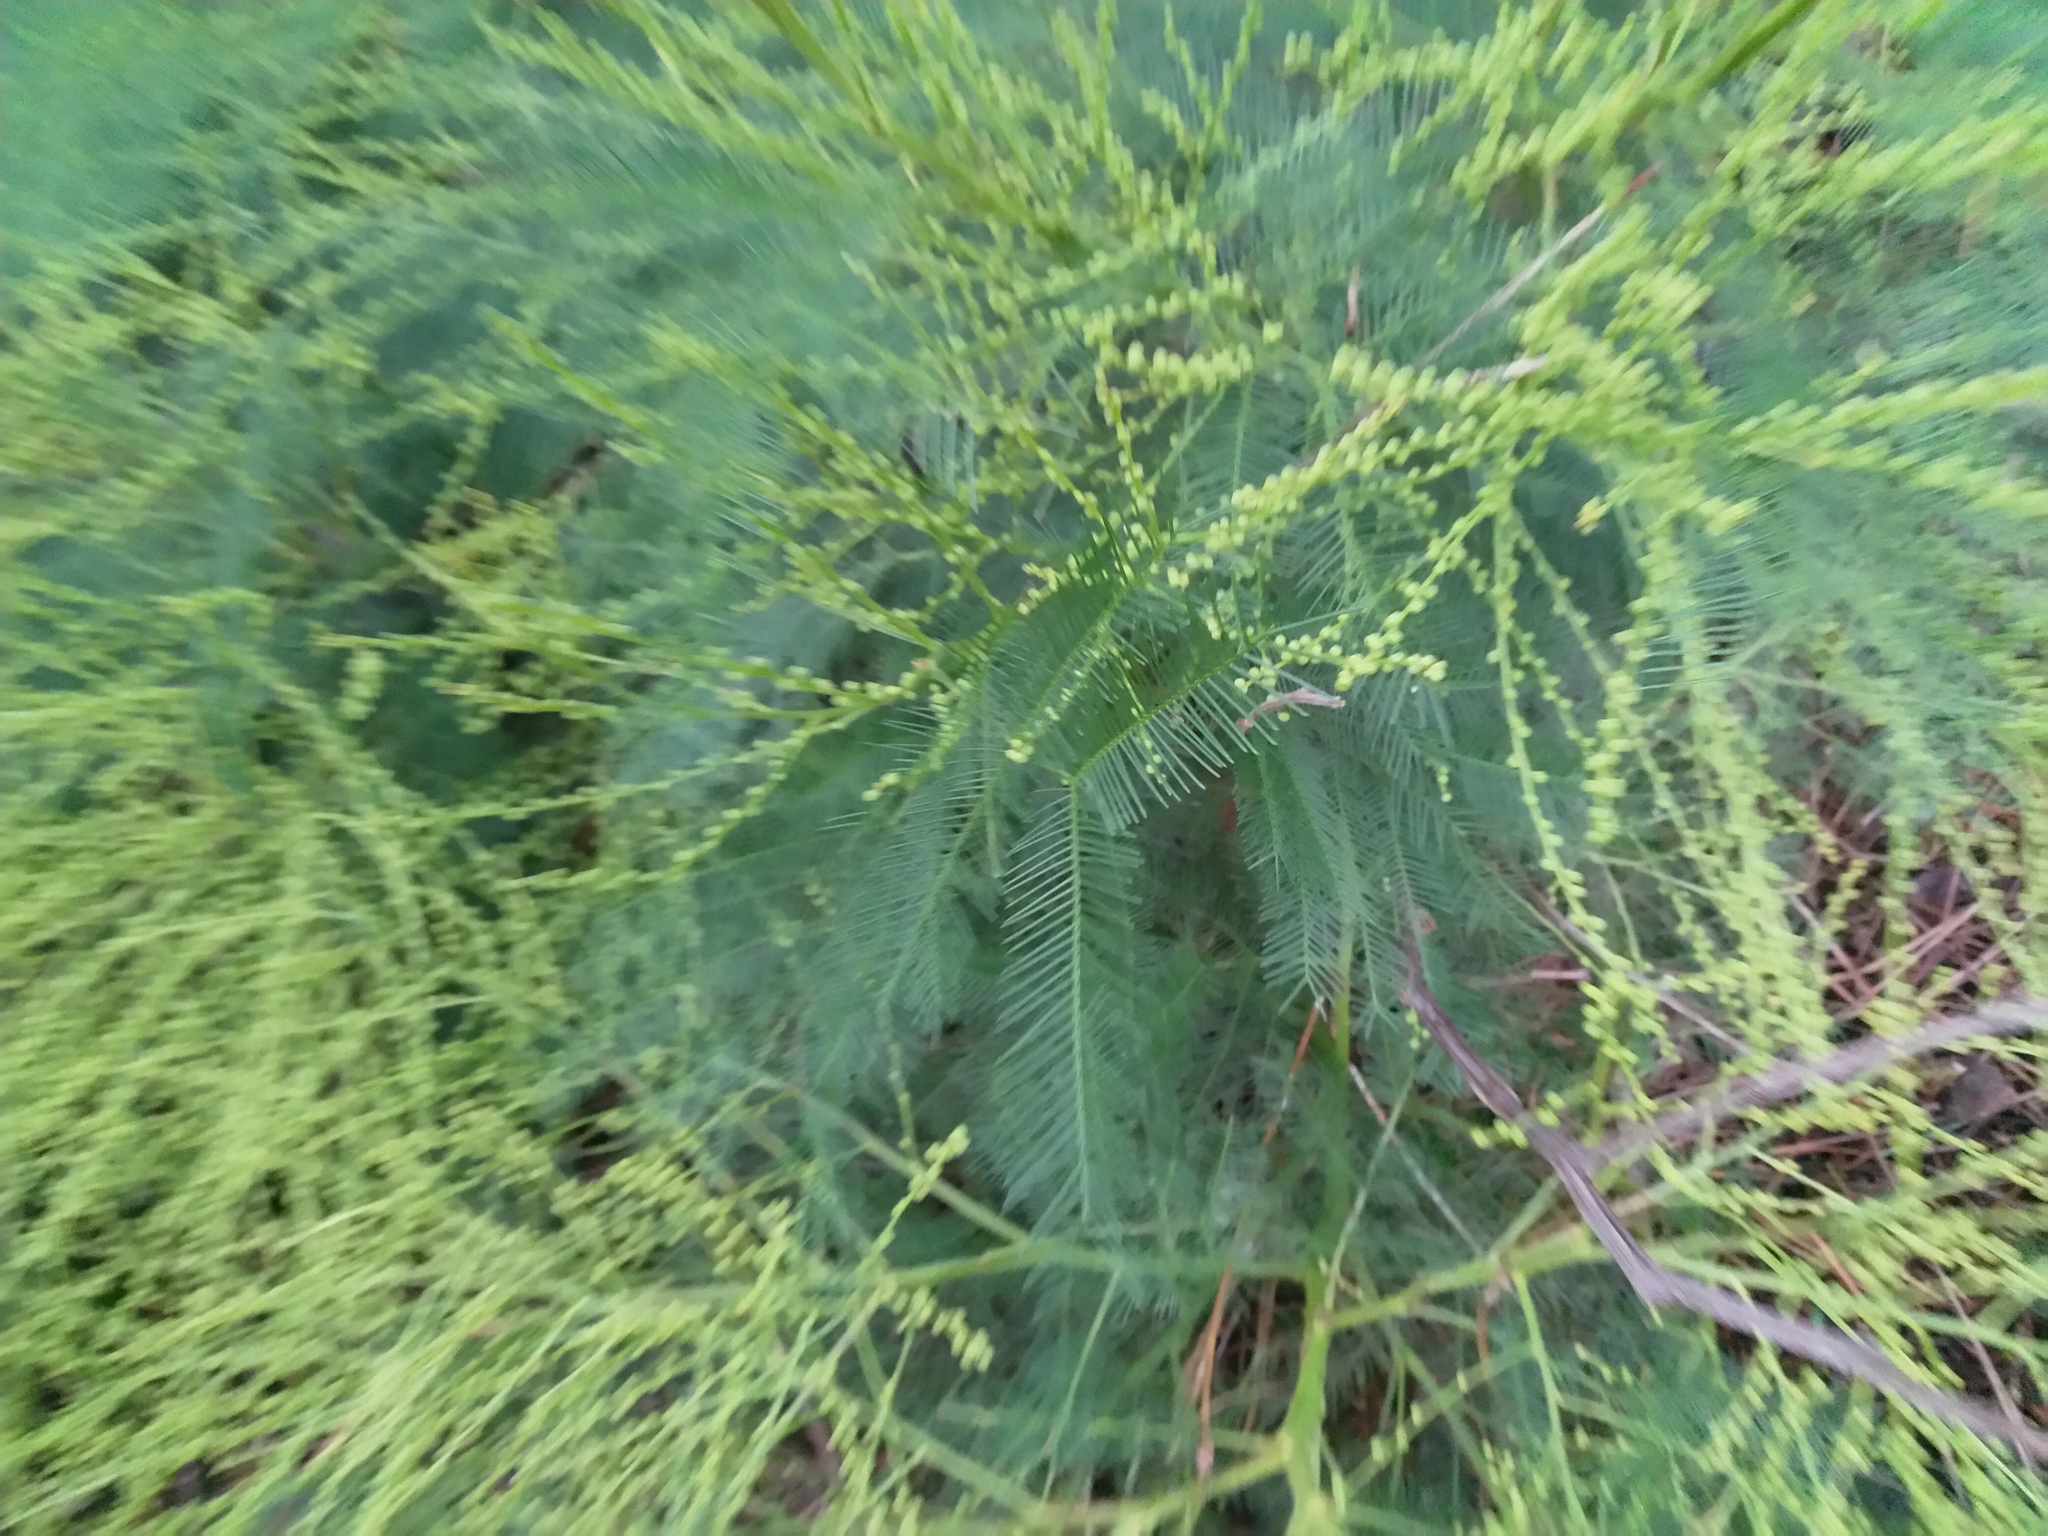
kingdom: Plantae
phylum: Tracheophyta
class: Magnoliopsida
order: Fabales
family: Fabaceae
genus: Acacia
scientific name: Acacia decurrens
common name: Green wattle
